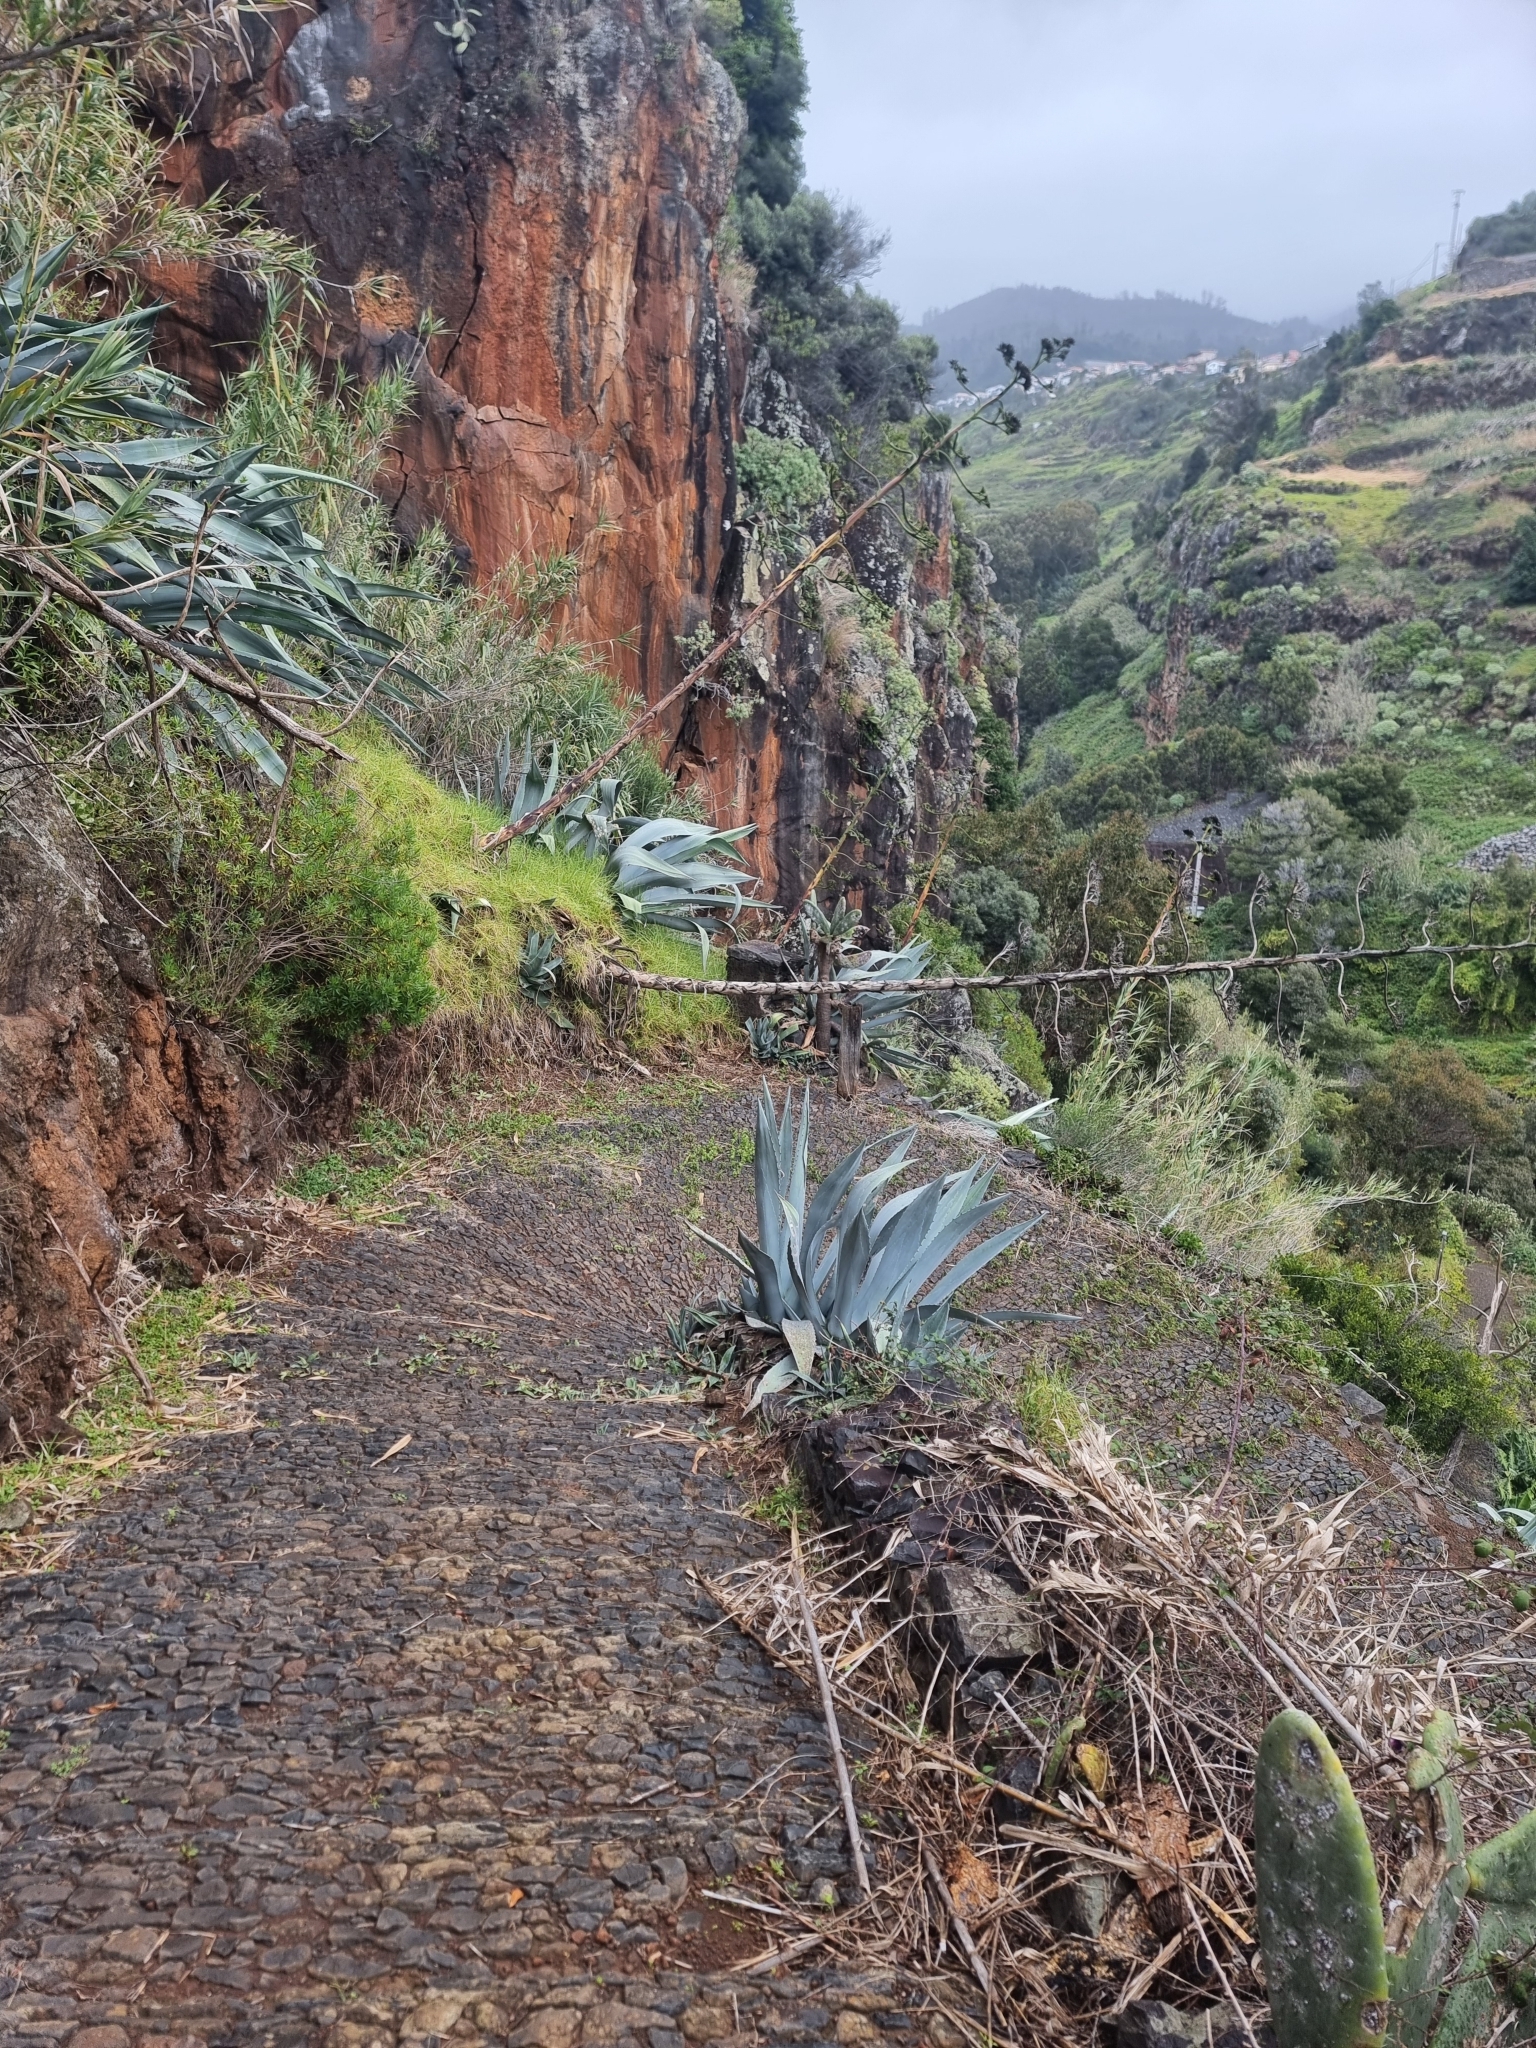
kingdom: Plantae
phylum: Tracheophyta
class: Liliopsida
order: Asparagales
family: Asparagaceae
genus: Agave
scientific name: Agave americana
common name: Centuryplant
